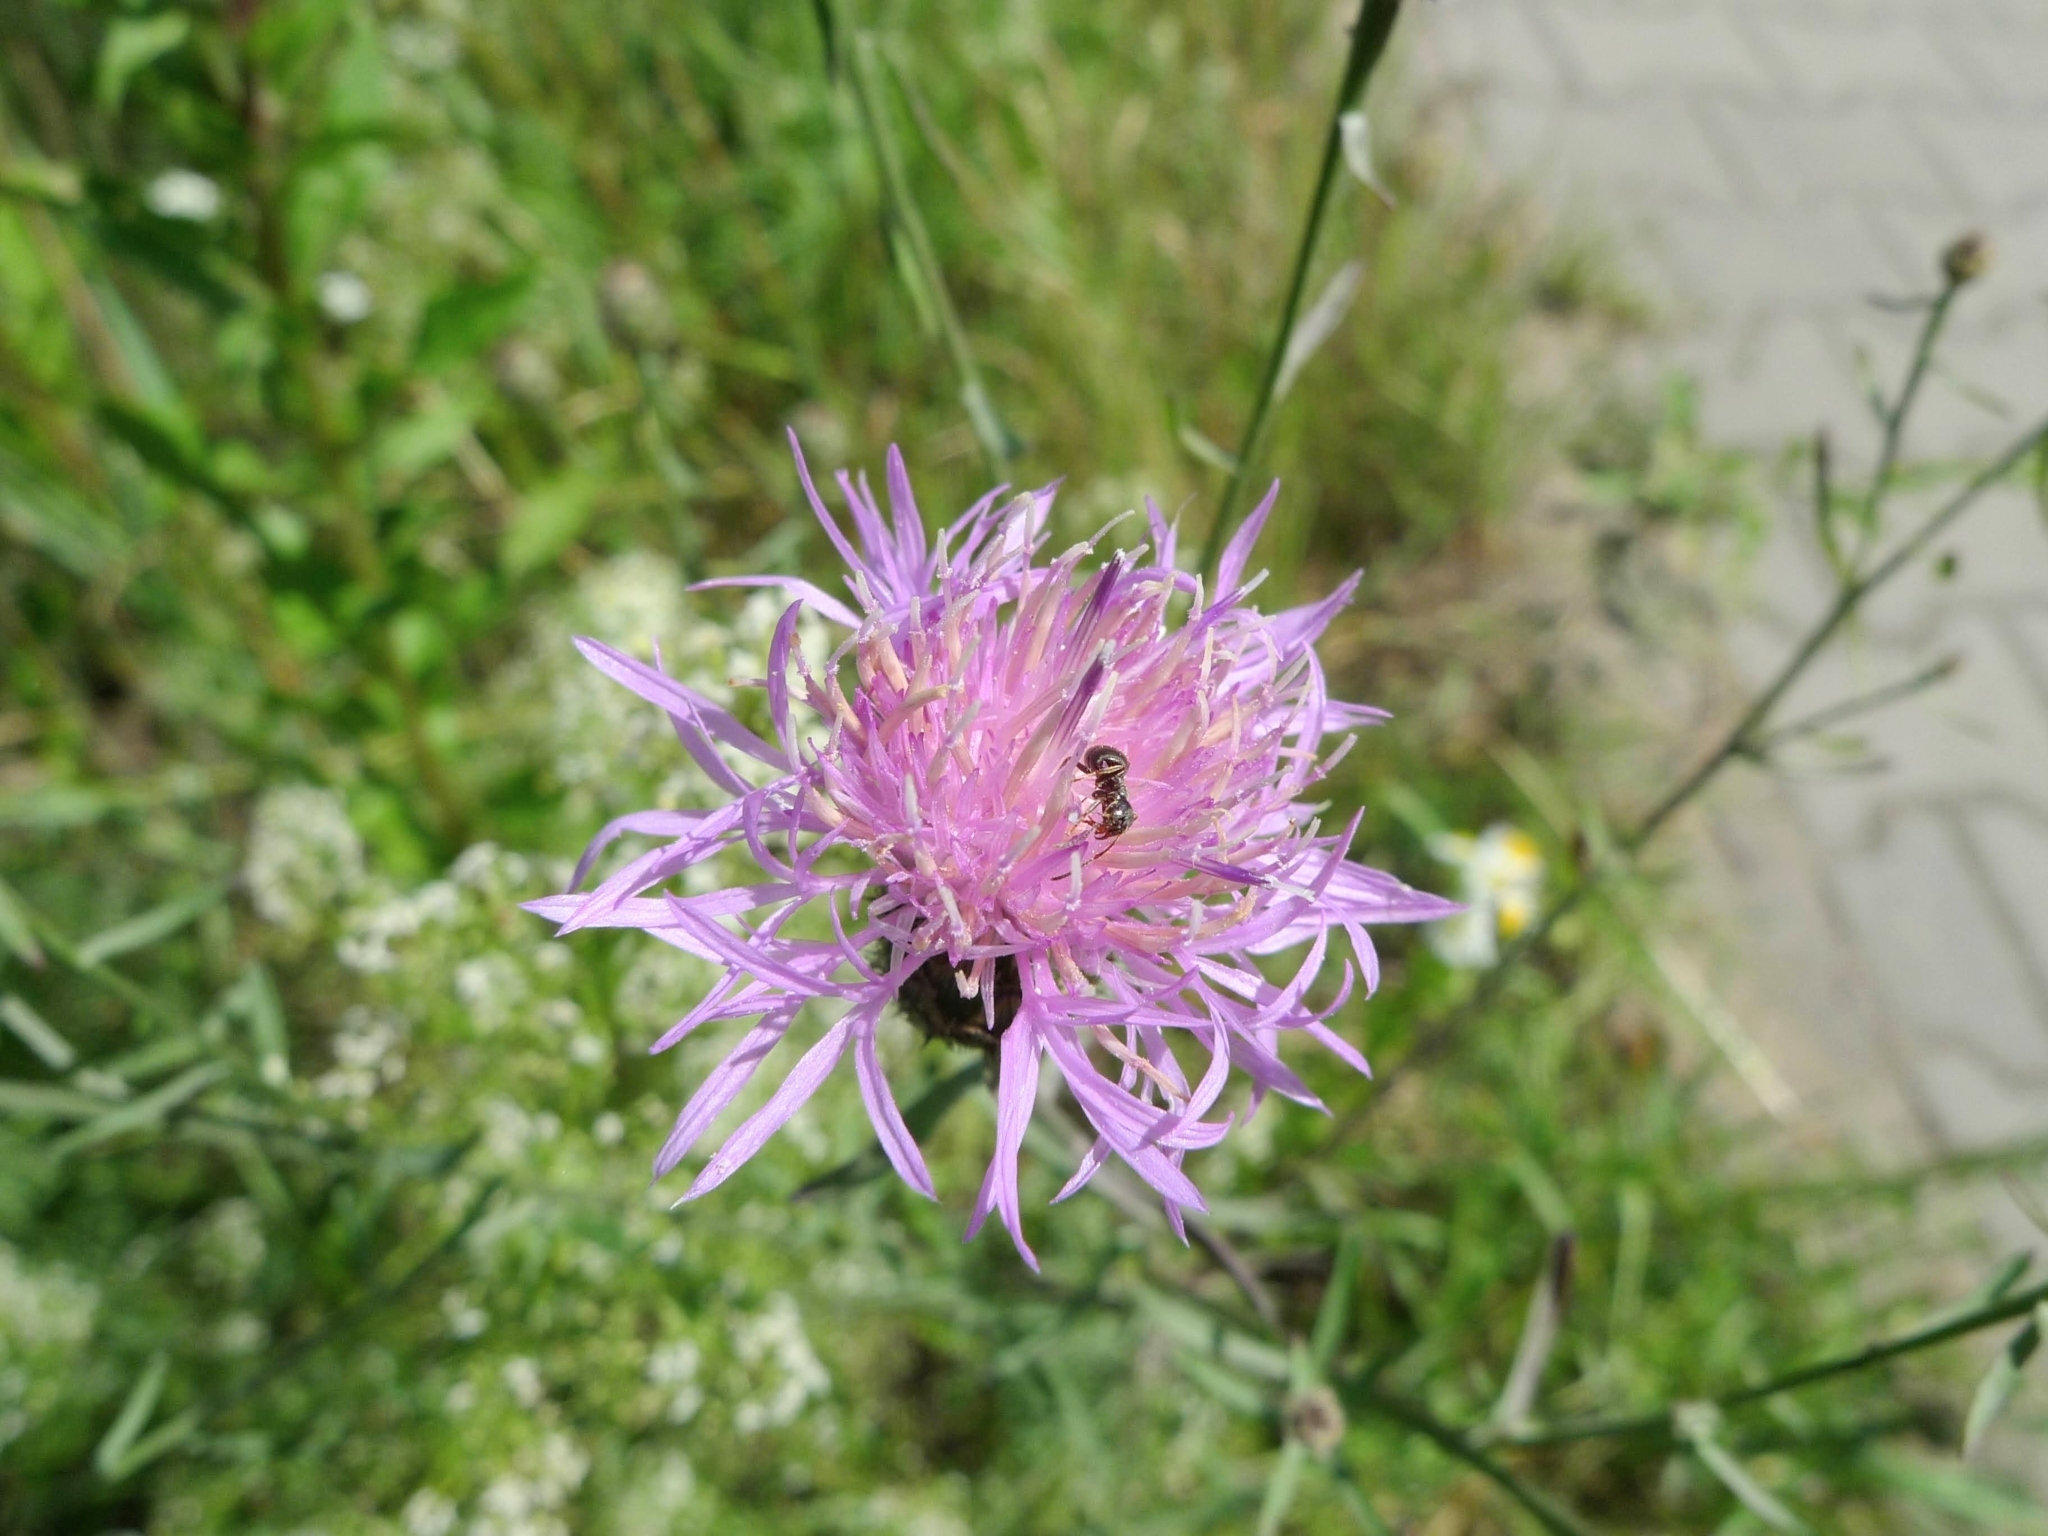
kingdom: Plantae
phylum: Tracheophyta
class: Magnoliopsida
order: Asterales
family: Asteraceae
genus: Centaurea
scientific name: Centaurea stoebe
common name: Spotted knapweed
